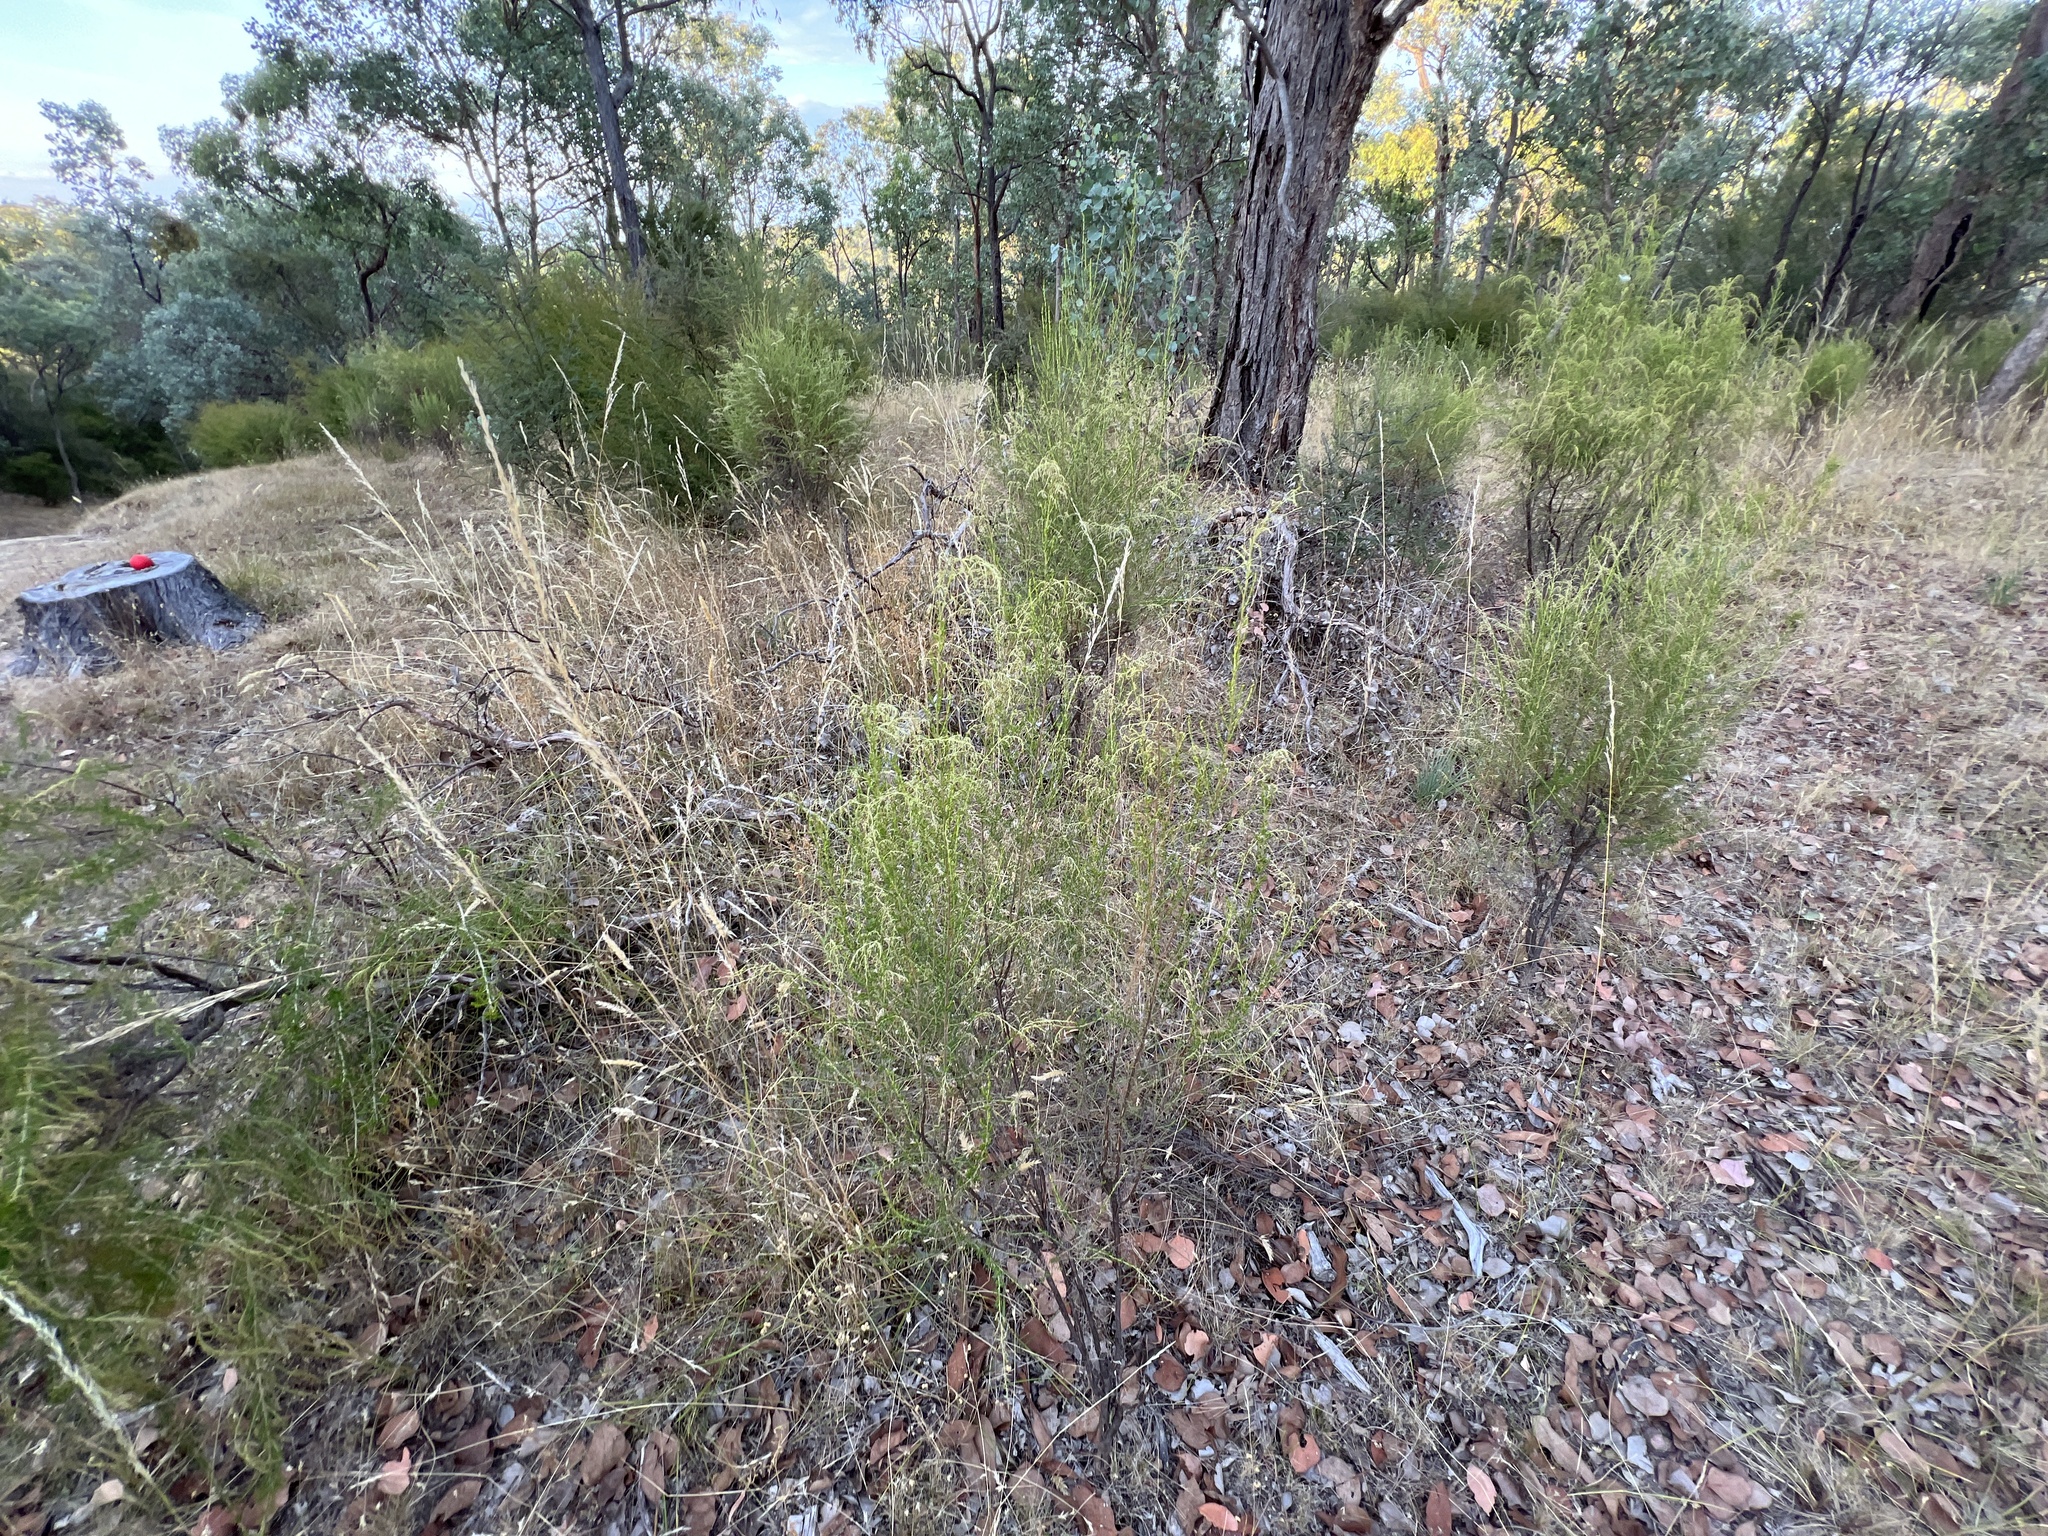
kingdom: Plantae
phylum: Tracheophyta
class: Magnoliopsida
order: Asterales
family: Asteraceae
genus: Cassinia
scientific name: Cassinia sifton
